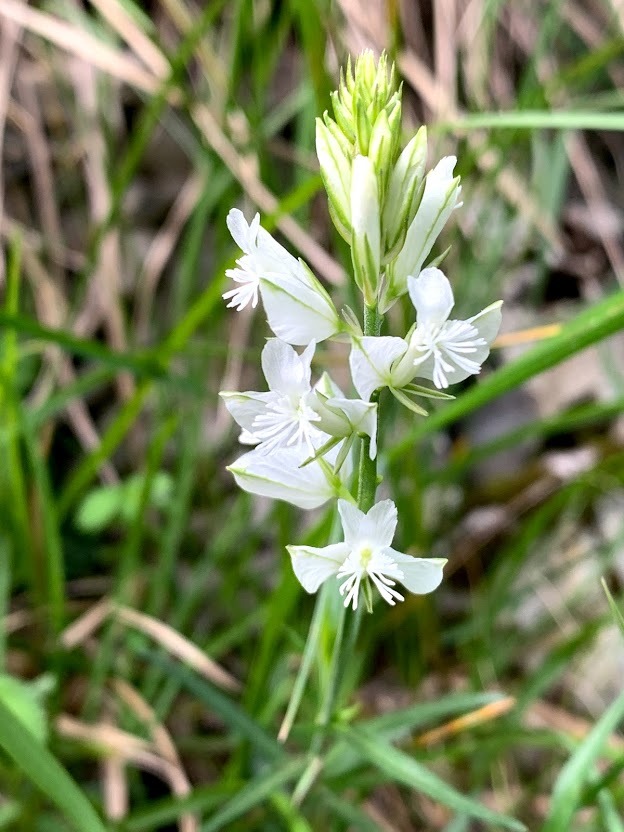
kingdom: Plantae
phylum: Tracheophyta
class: Magnoliopsida
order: Fabales
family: Polygalaceae
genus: Polygala
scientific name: Polygala nicaeensis
